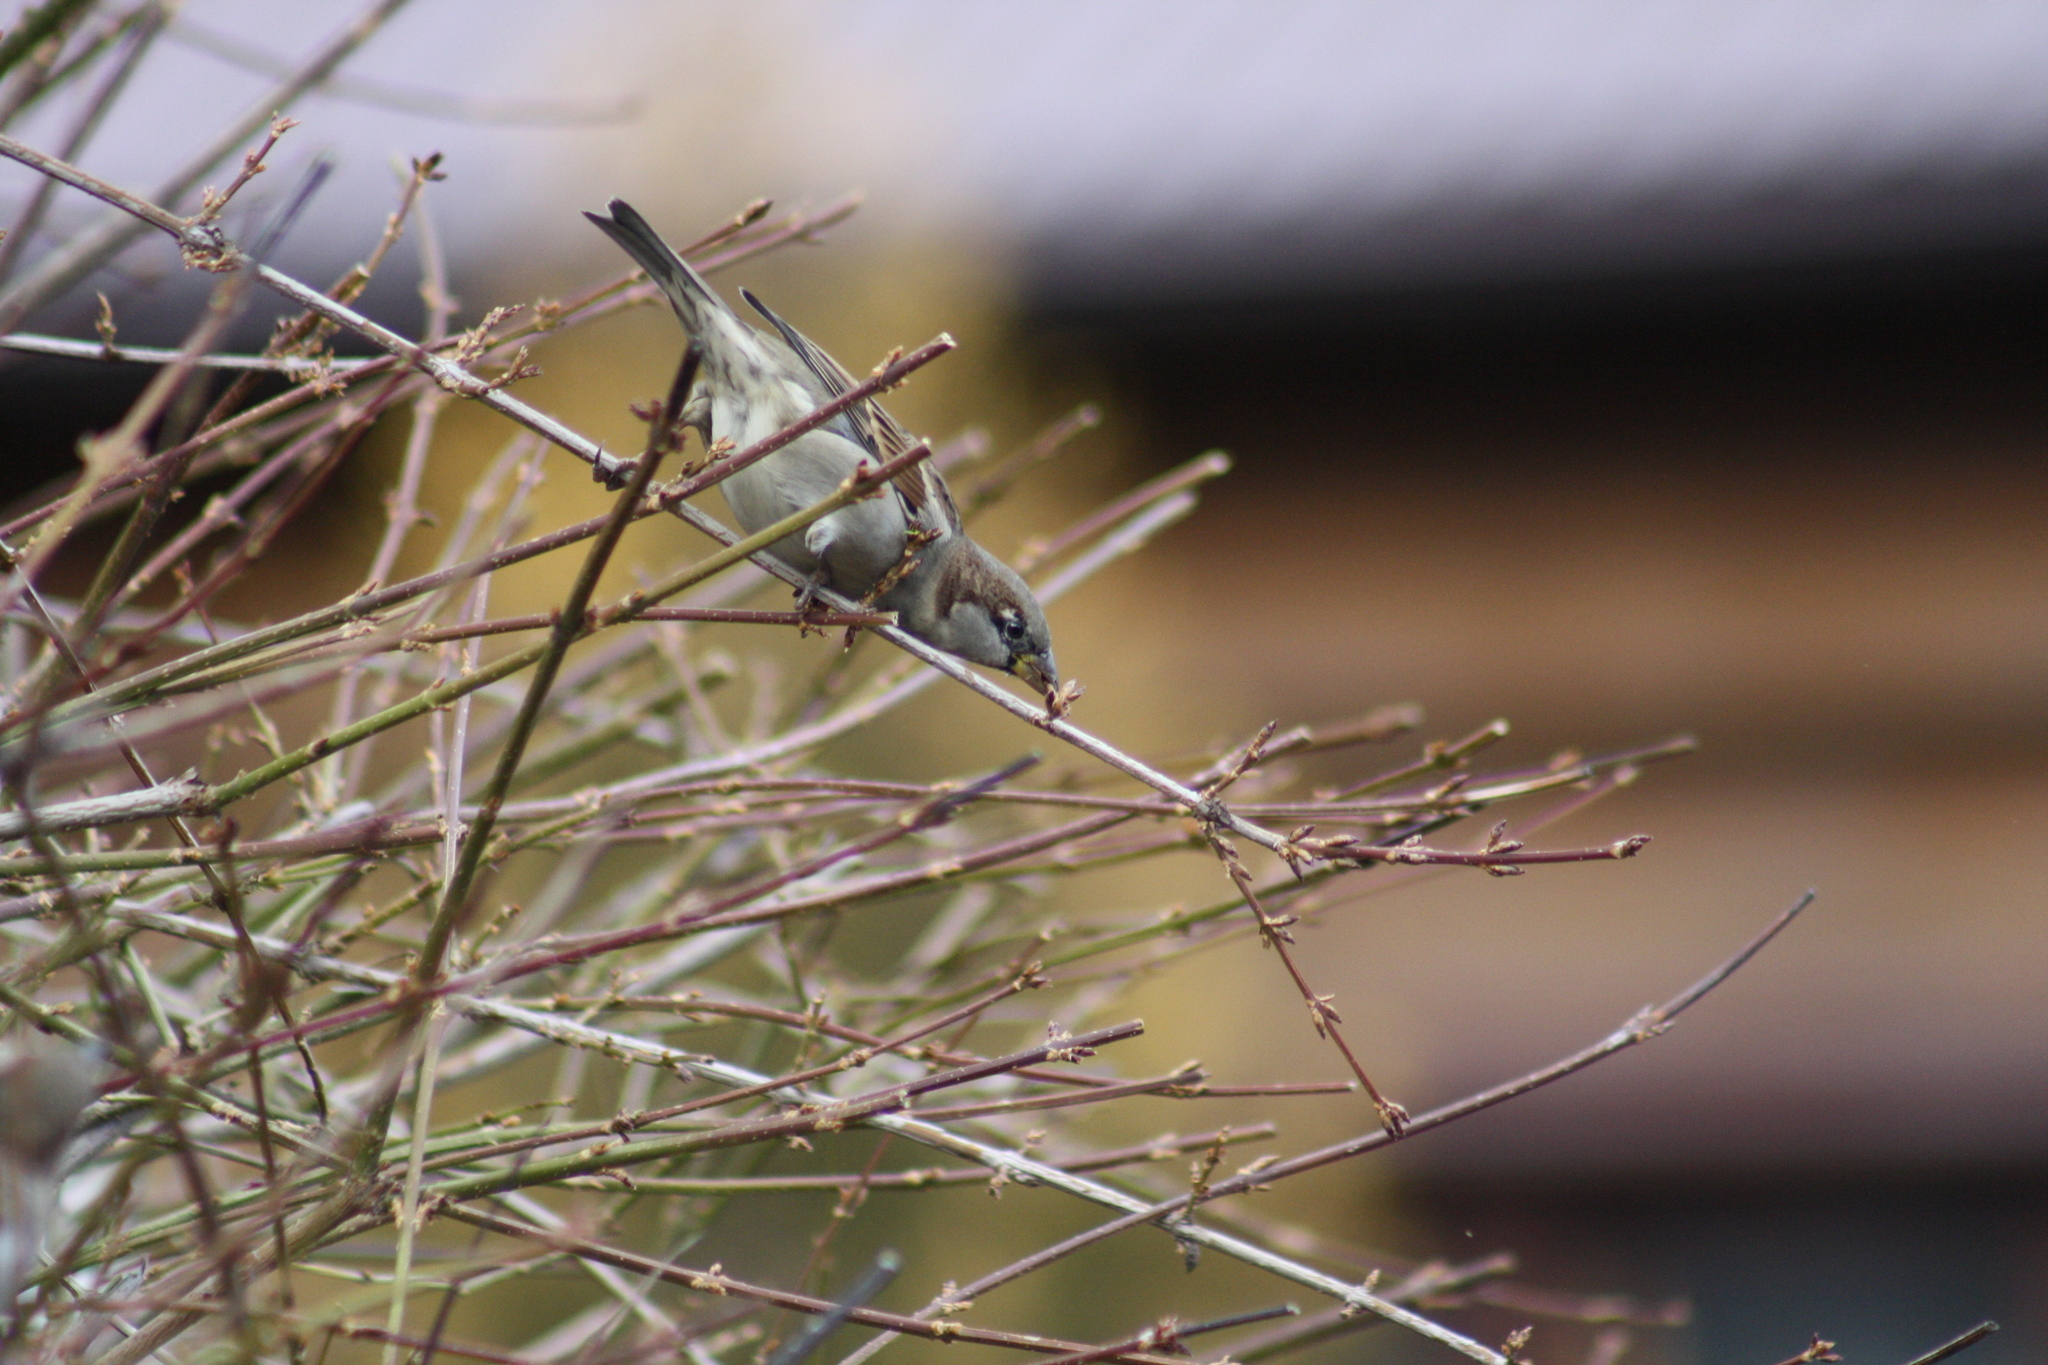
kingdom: Animalia
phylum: Chordata
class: Aves
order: Passeriformes
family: Passeridae
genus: Passer
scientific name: Passer domesticus
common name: House sparrow
